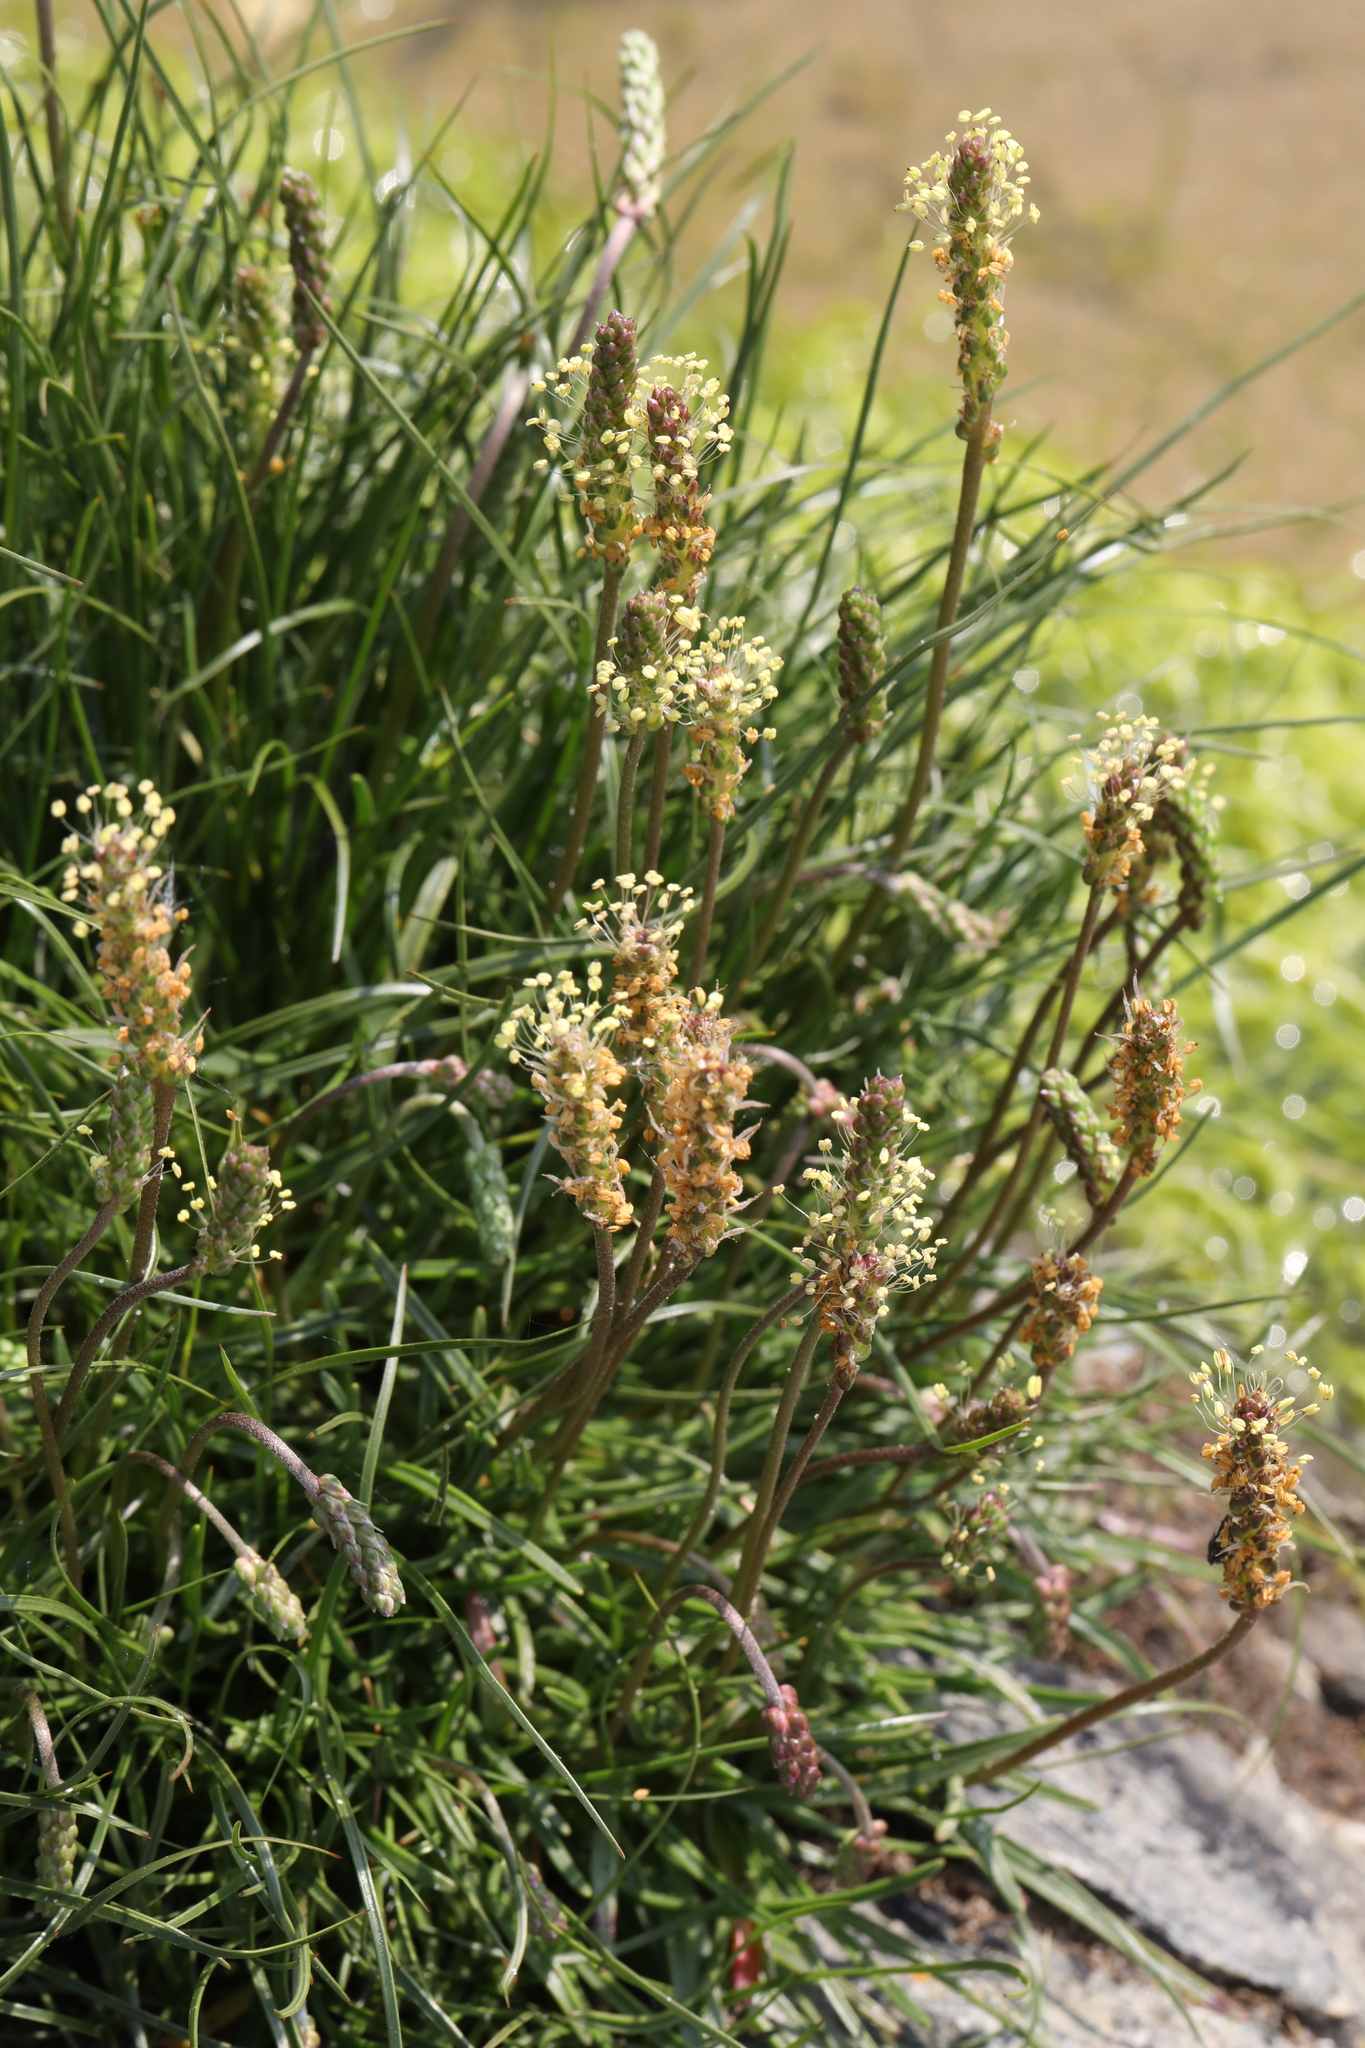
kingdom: Plantae
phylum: Tracheophyta
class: Magnoliopsida
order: Lamiales
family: Plantaginaceae
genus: Plantago
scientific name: Plantago maritima
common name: Sea plantain
